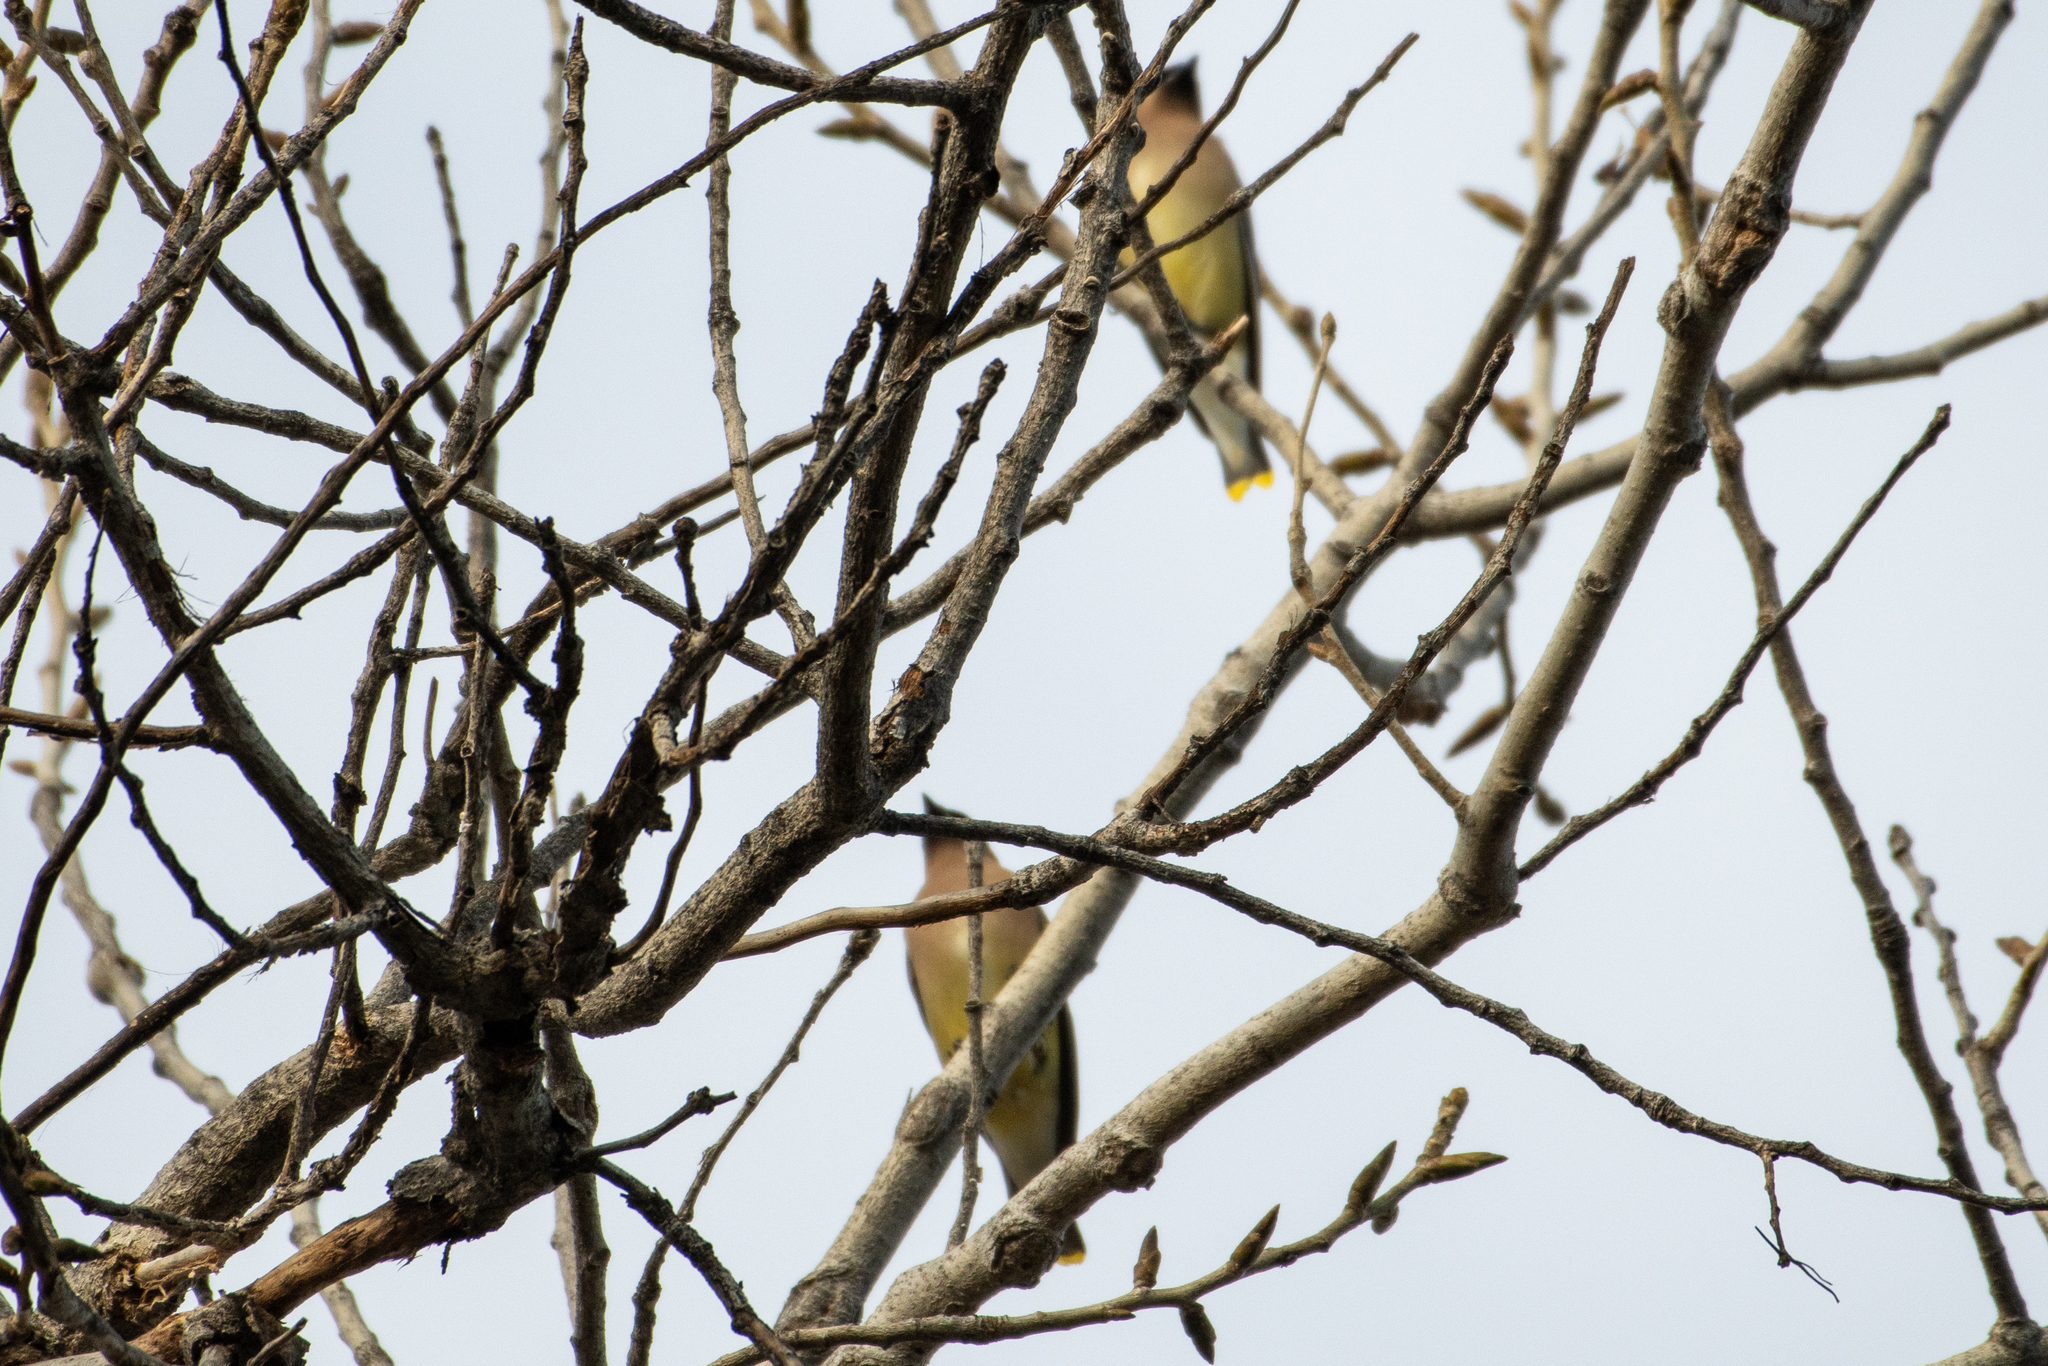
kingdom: Animalia
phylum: Chordata
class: Aves
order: Passeriformes
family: Bombycillidae
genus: Bombycilla
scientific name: Bombycilla cedrorum
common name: Cedar waxwing
